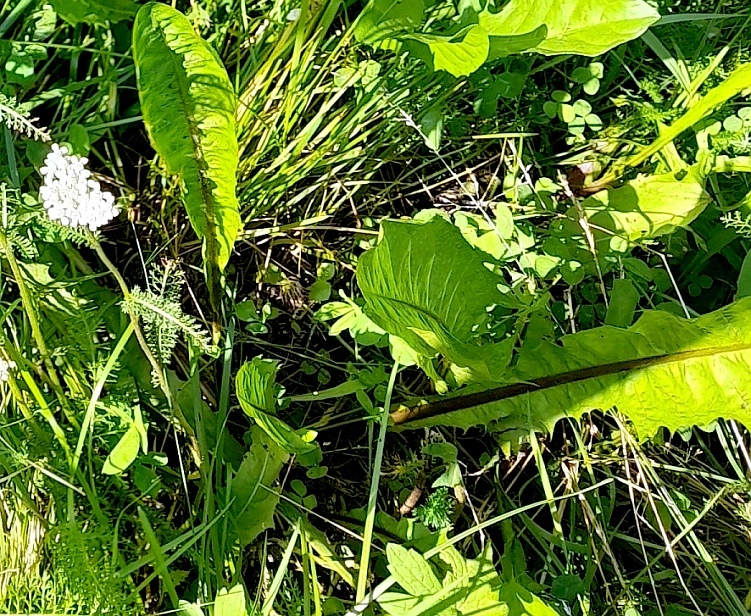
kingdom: Plantae
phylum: Tracheophyta
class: Magnoliopsida
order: Asterales
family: Asteraceae
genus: Taraxacum
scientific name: Taraxacum officinale
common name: Common dandelion
